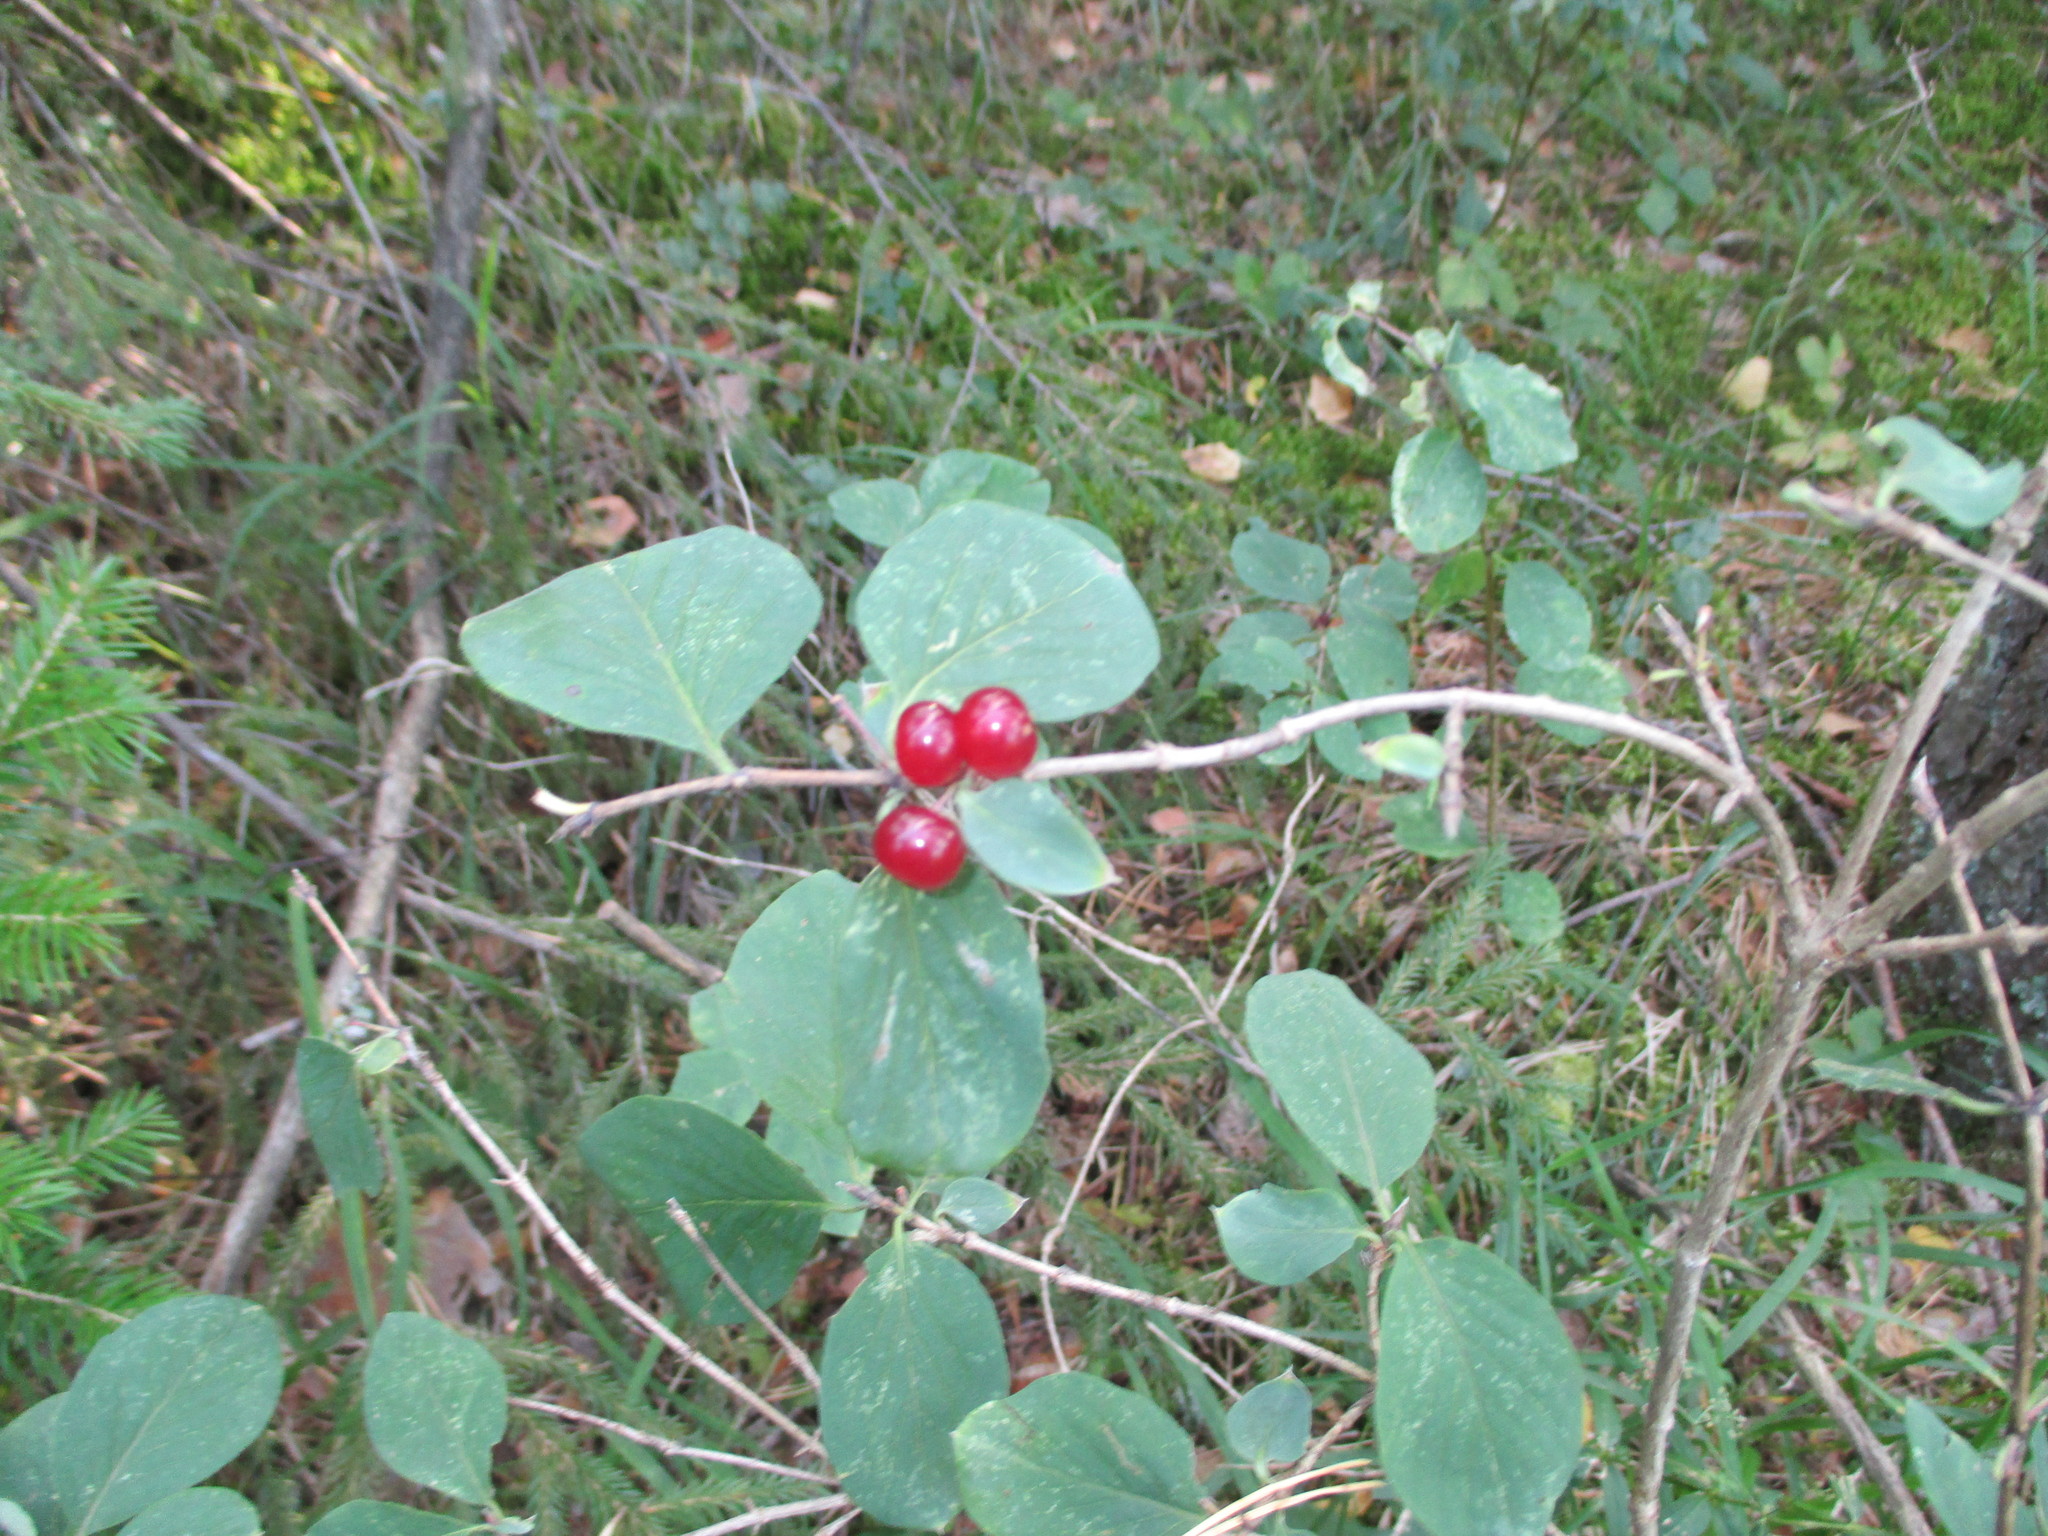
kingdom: Plantae
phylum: Tracheophyta
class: Magnoliopsida
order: Dipsacales
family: Caprifoliaceae
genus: Lonicera
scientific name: Lonicera xylosteum
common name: Fly honeysuckle
